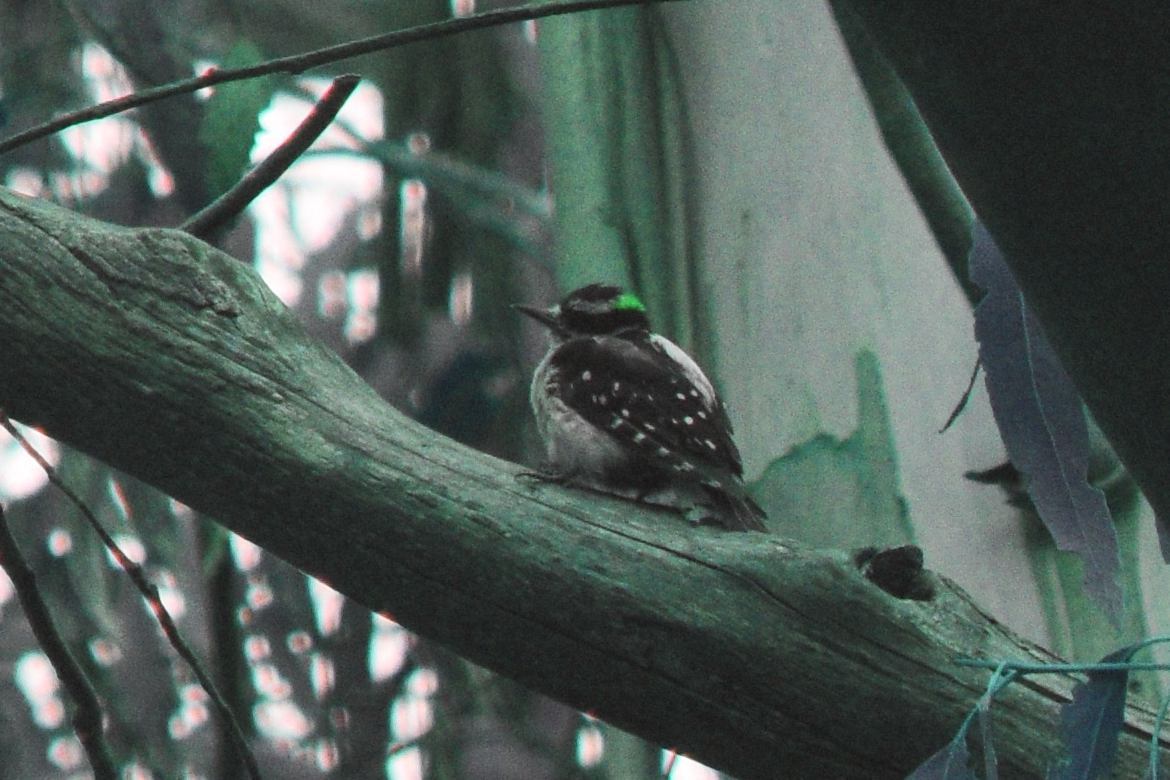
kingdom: Animalia
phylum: Chordata
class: Aves
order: Piciformes
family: Picidae
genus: Dryobates
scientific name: Dryobates pubescens
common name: Downy woodpecker
